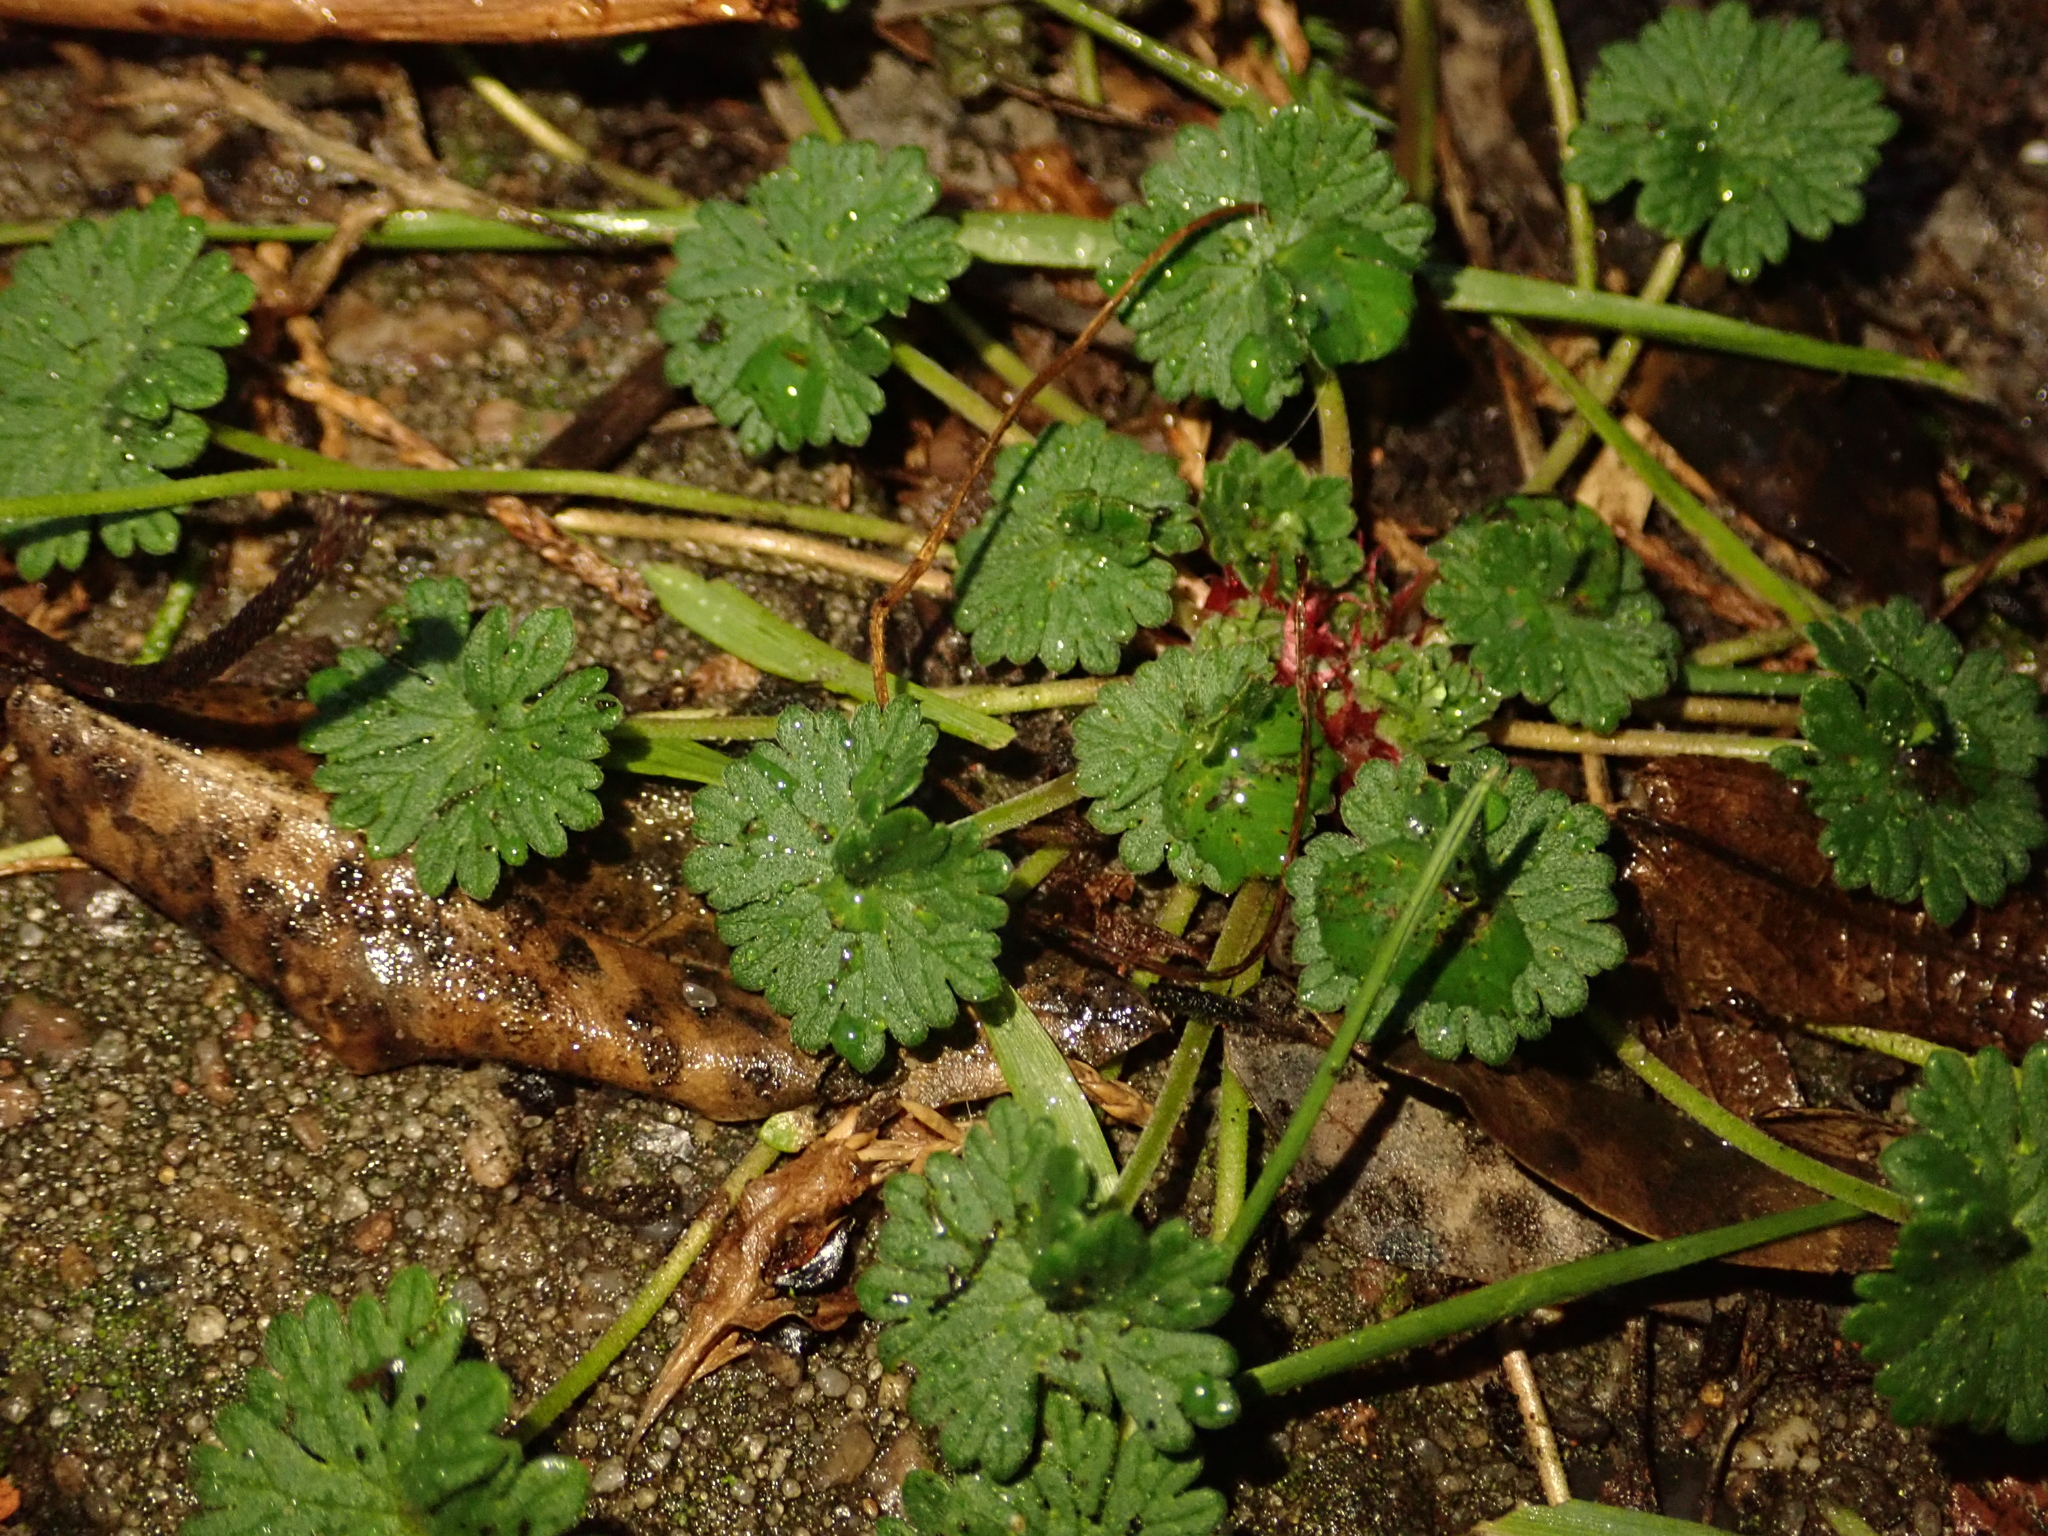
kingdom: Plantae
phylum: Tracheophyta
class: Magnoliopsida
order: Geraniales
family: Geraniaceae
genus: Geranium
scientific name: Geranium molle
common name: Dove's-foot crane's-bill
